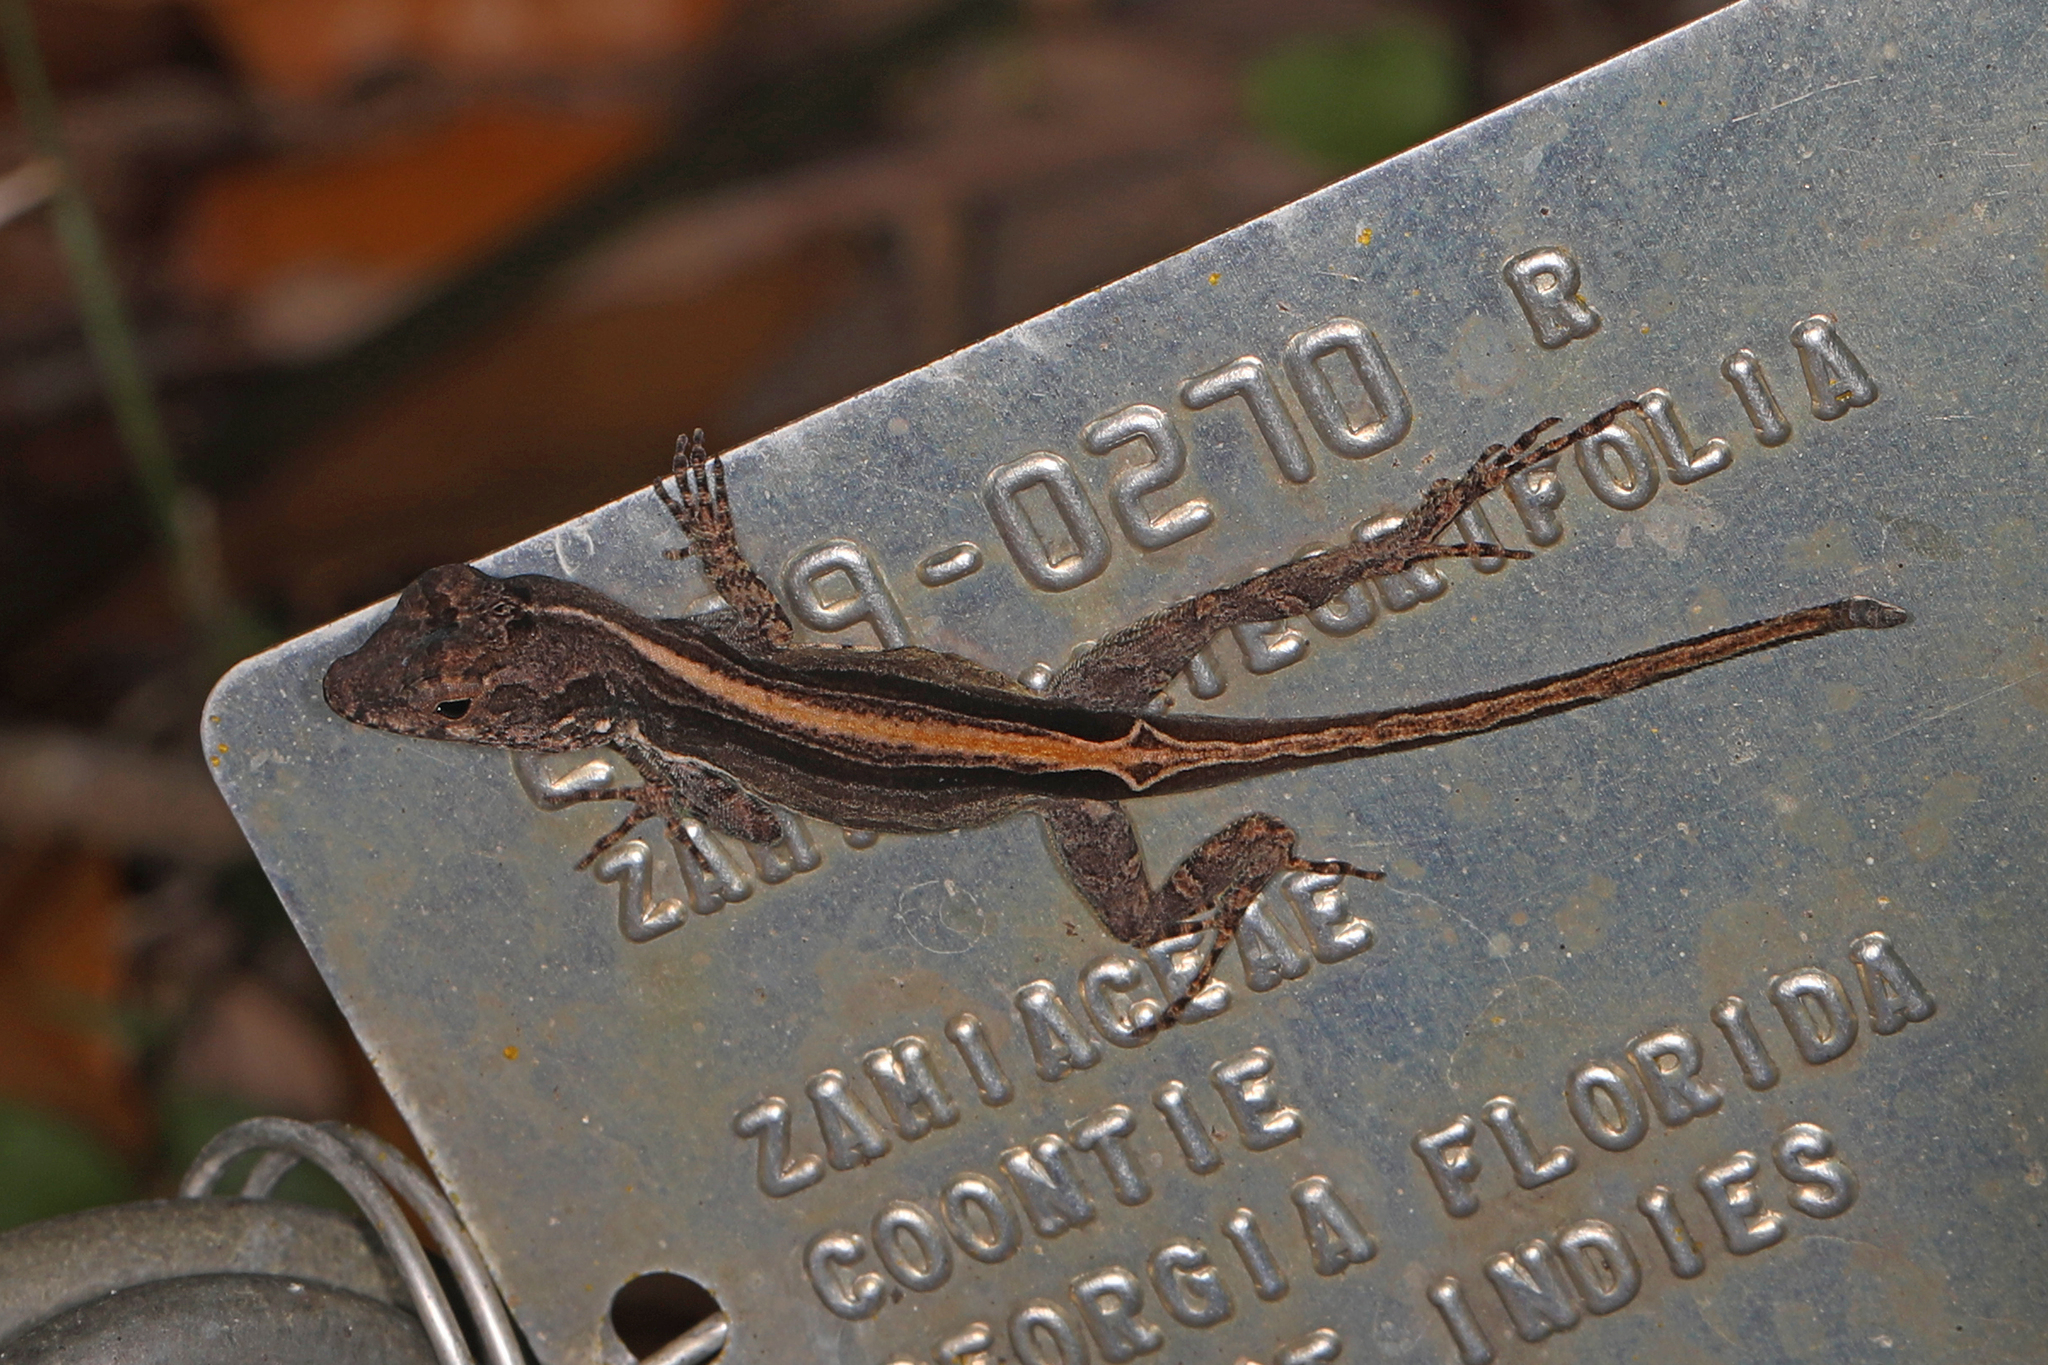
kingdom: Animalia
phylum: Chordata
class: Squamata
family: Dactyloidae
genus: Anolis
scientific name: Anolis cristatellus
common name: Crested anole
